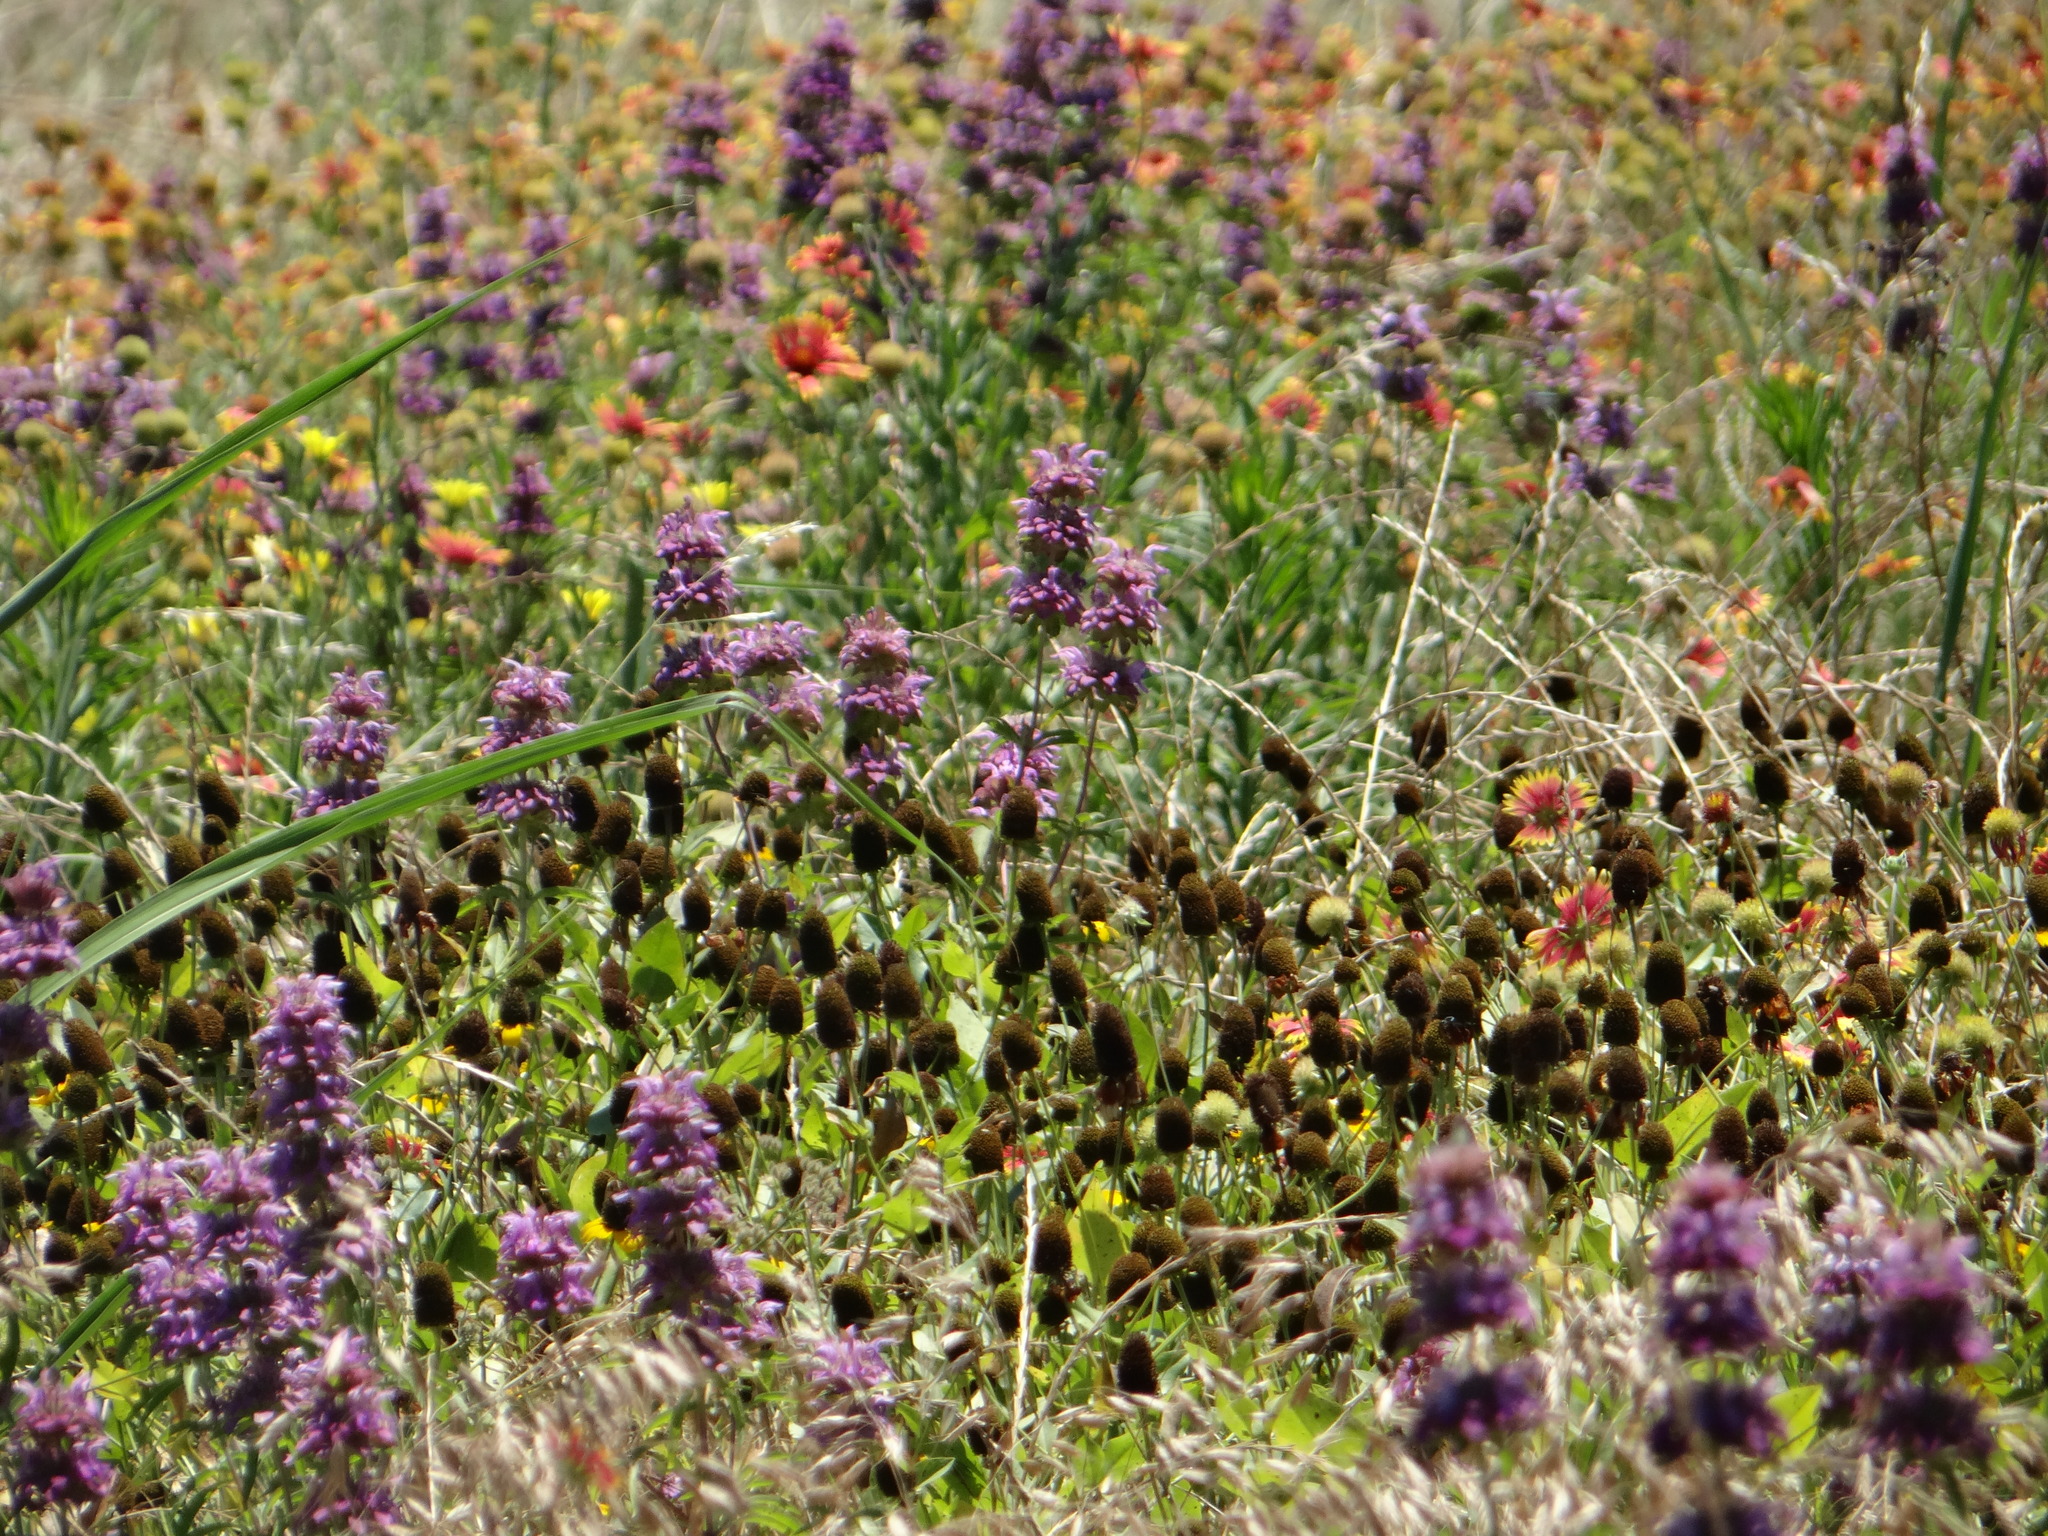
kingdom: Plantae
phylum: Tracheophyta
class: Magnoliopsida
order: Lamiales
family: Lamiaceae
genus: Monarda
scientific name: Monarda citriodora
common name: Lemon beebalm
